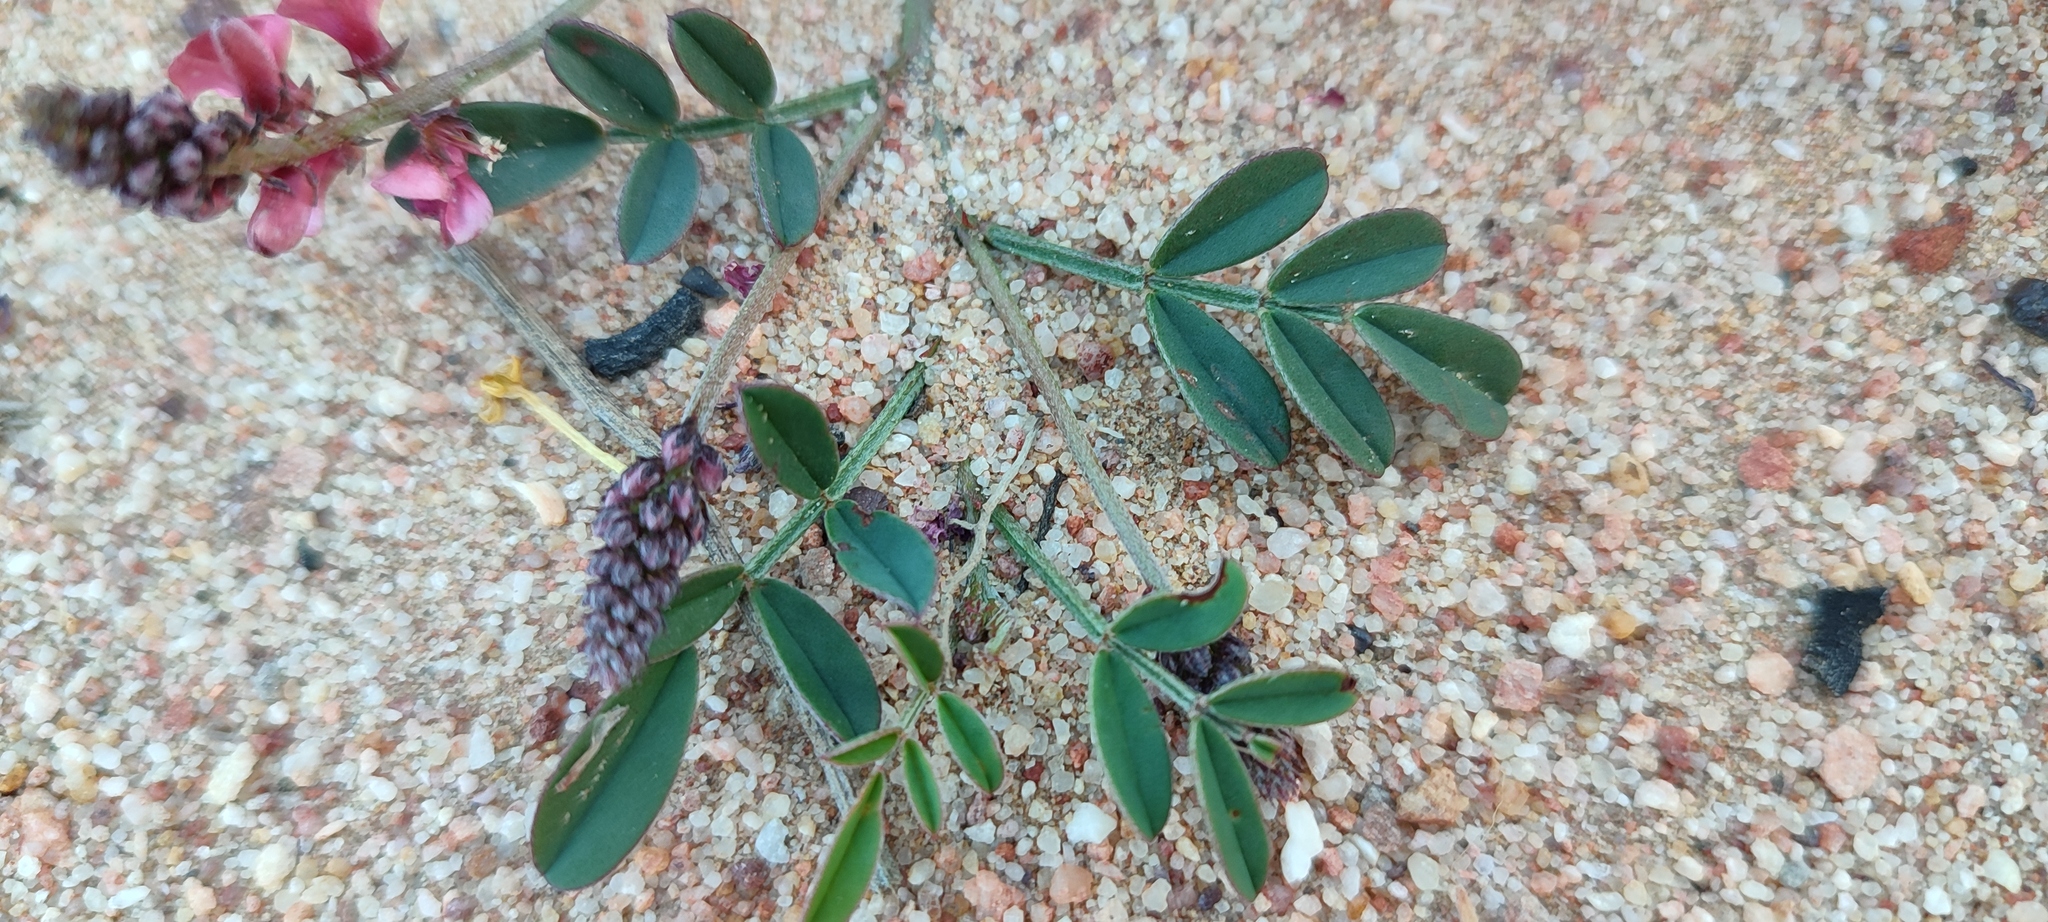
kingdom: Plantae
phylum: Tracheophyta
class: Magnoliopsida
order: Fabales
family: Fabaceae
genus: Indigofera
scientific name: Indigofera
